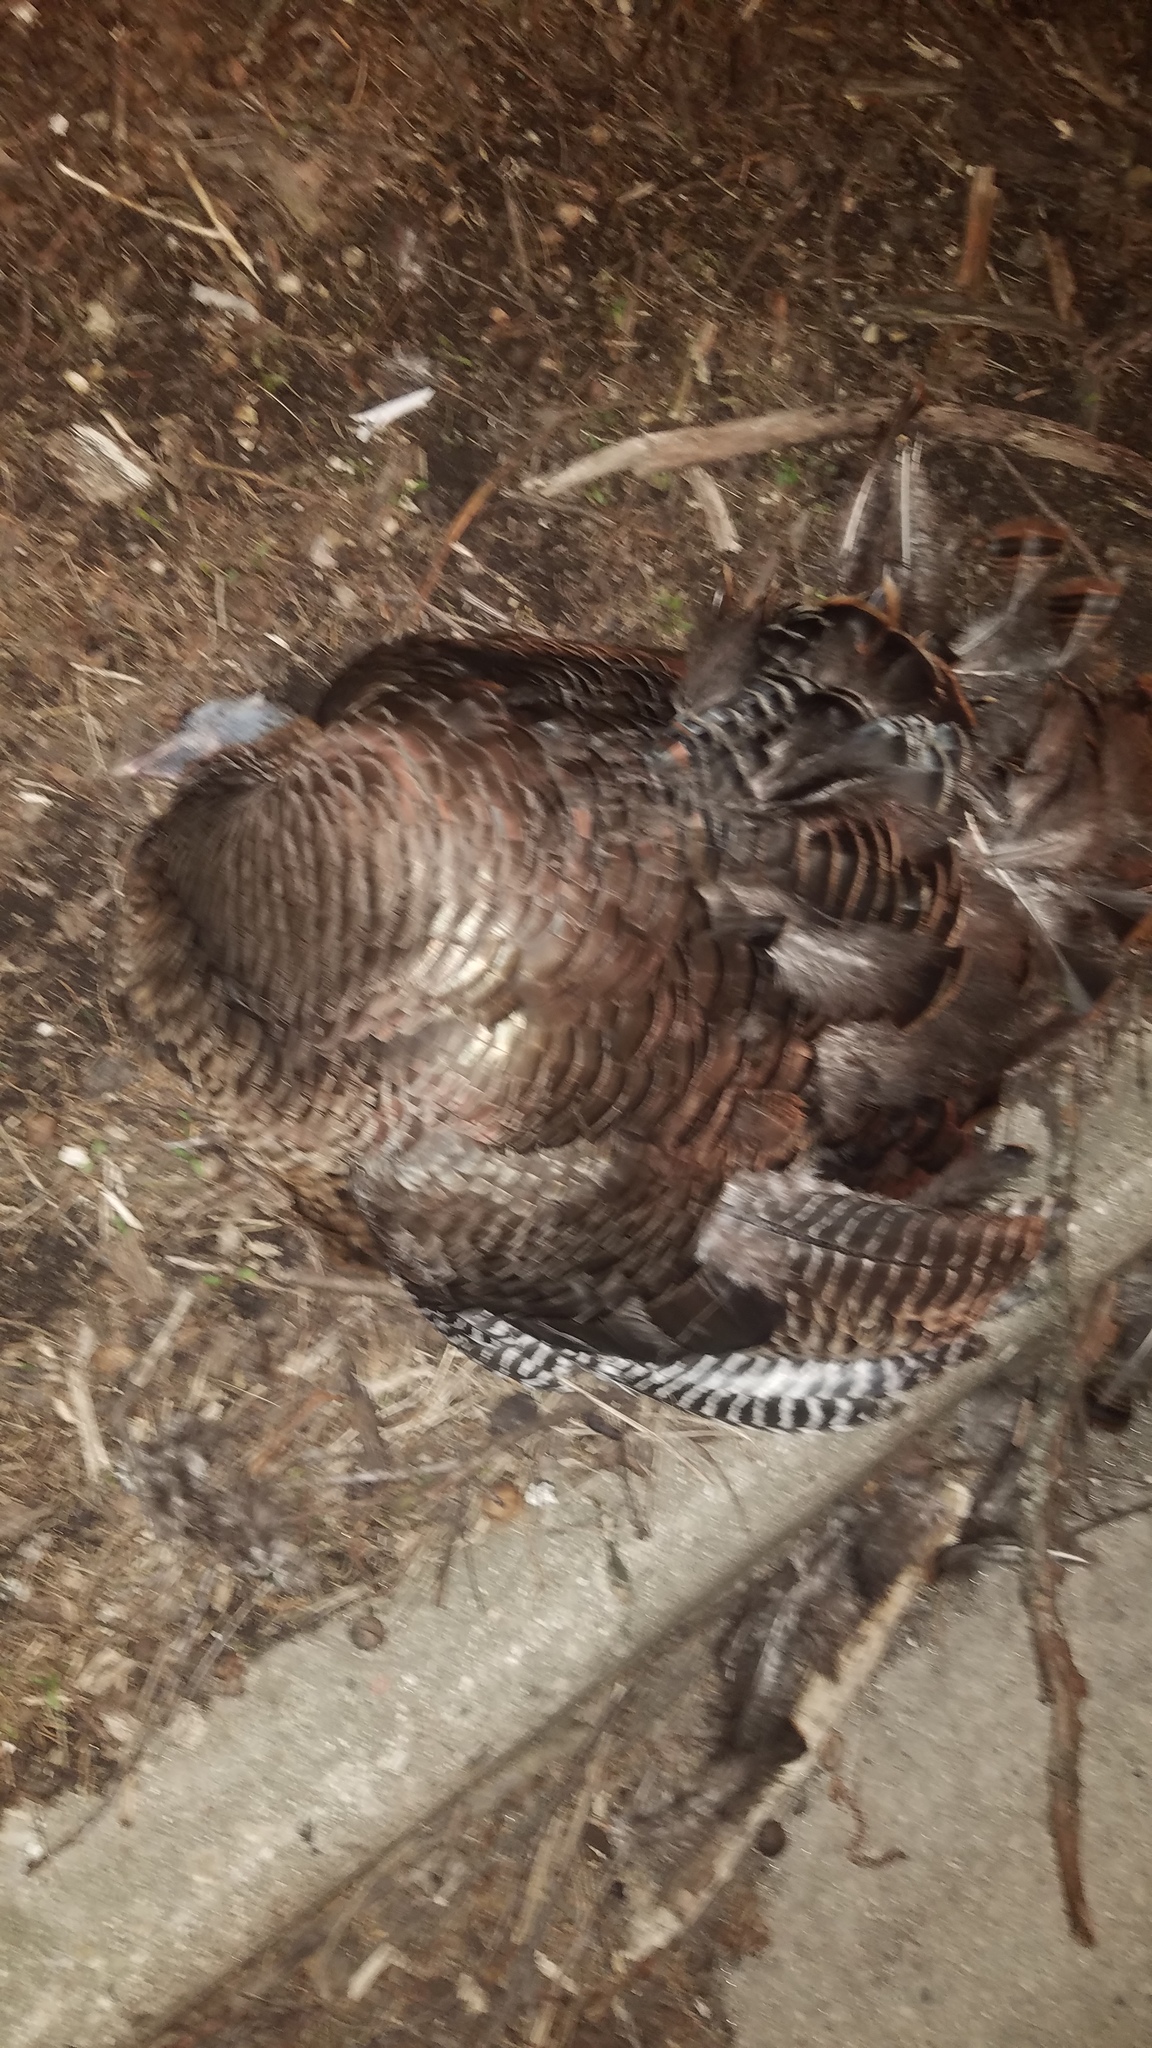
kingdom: Animalia
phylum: Chordata
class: Aves
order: Galliformes
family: Phasianidae
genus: Meleagris
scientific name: Meleagris gallopavo
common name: Wild turkey
